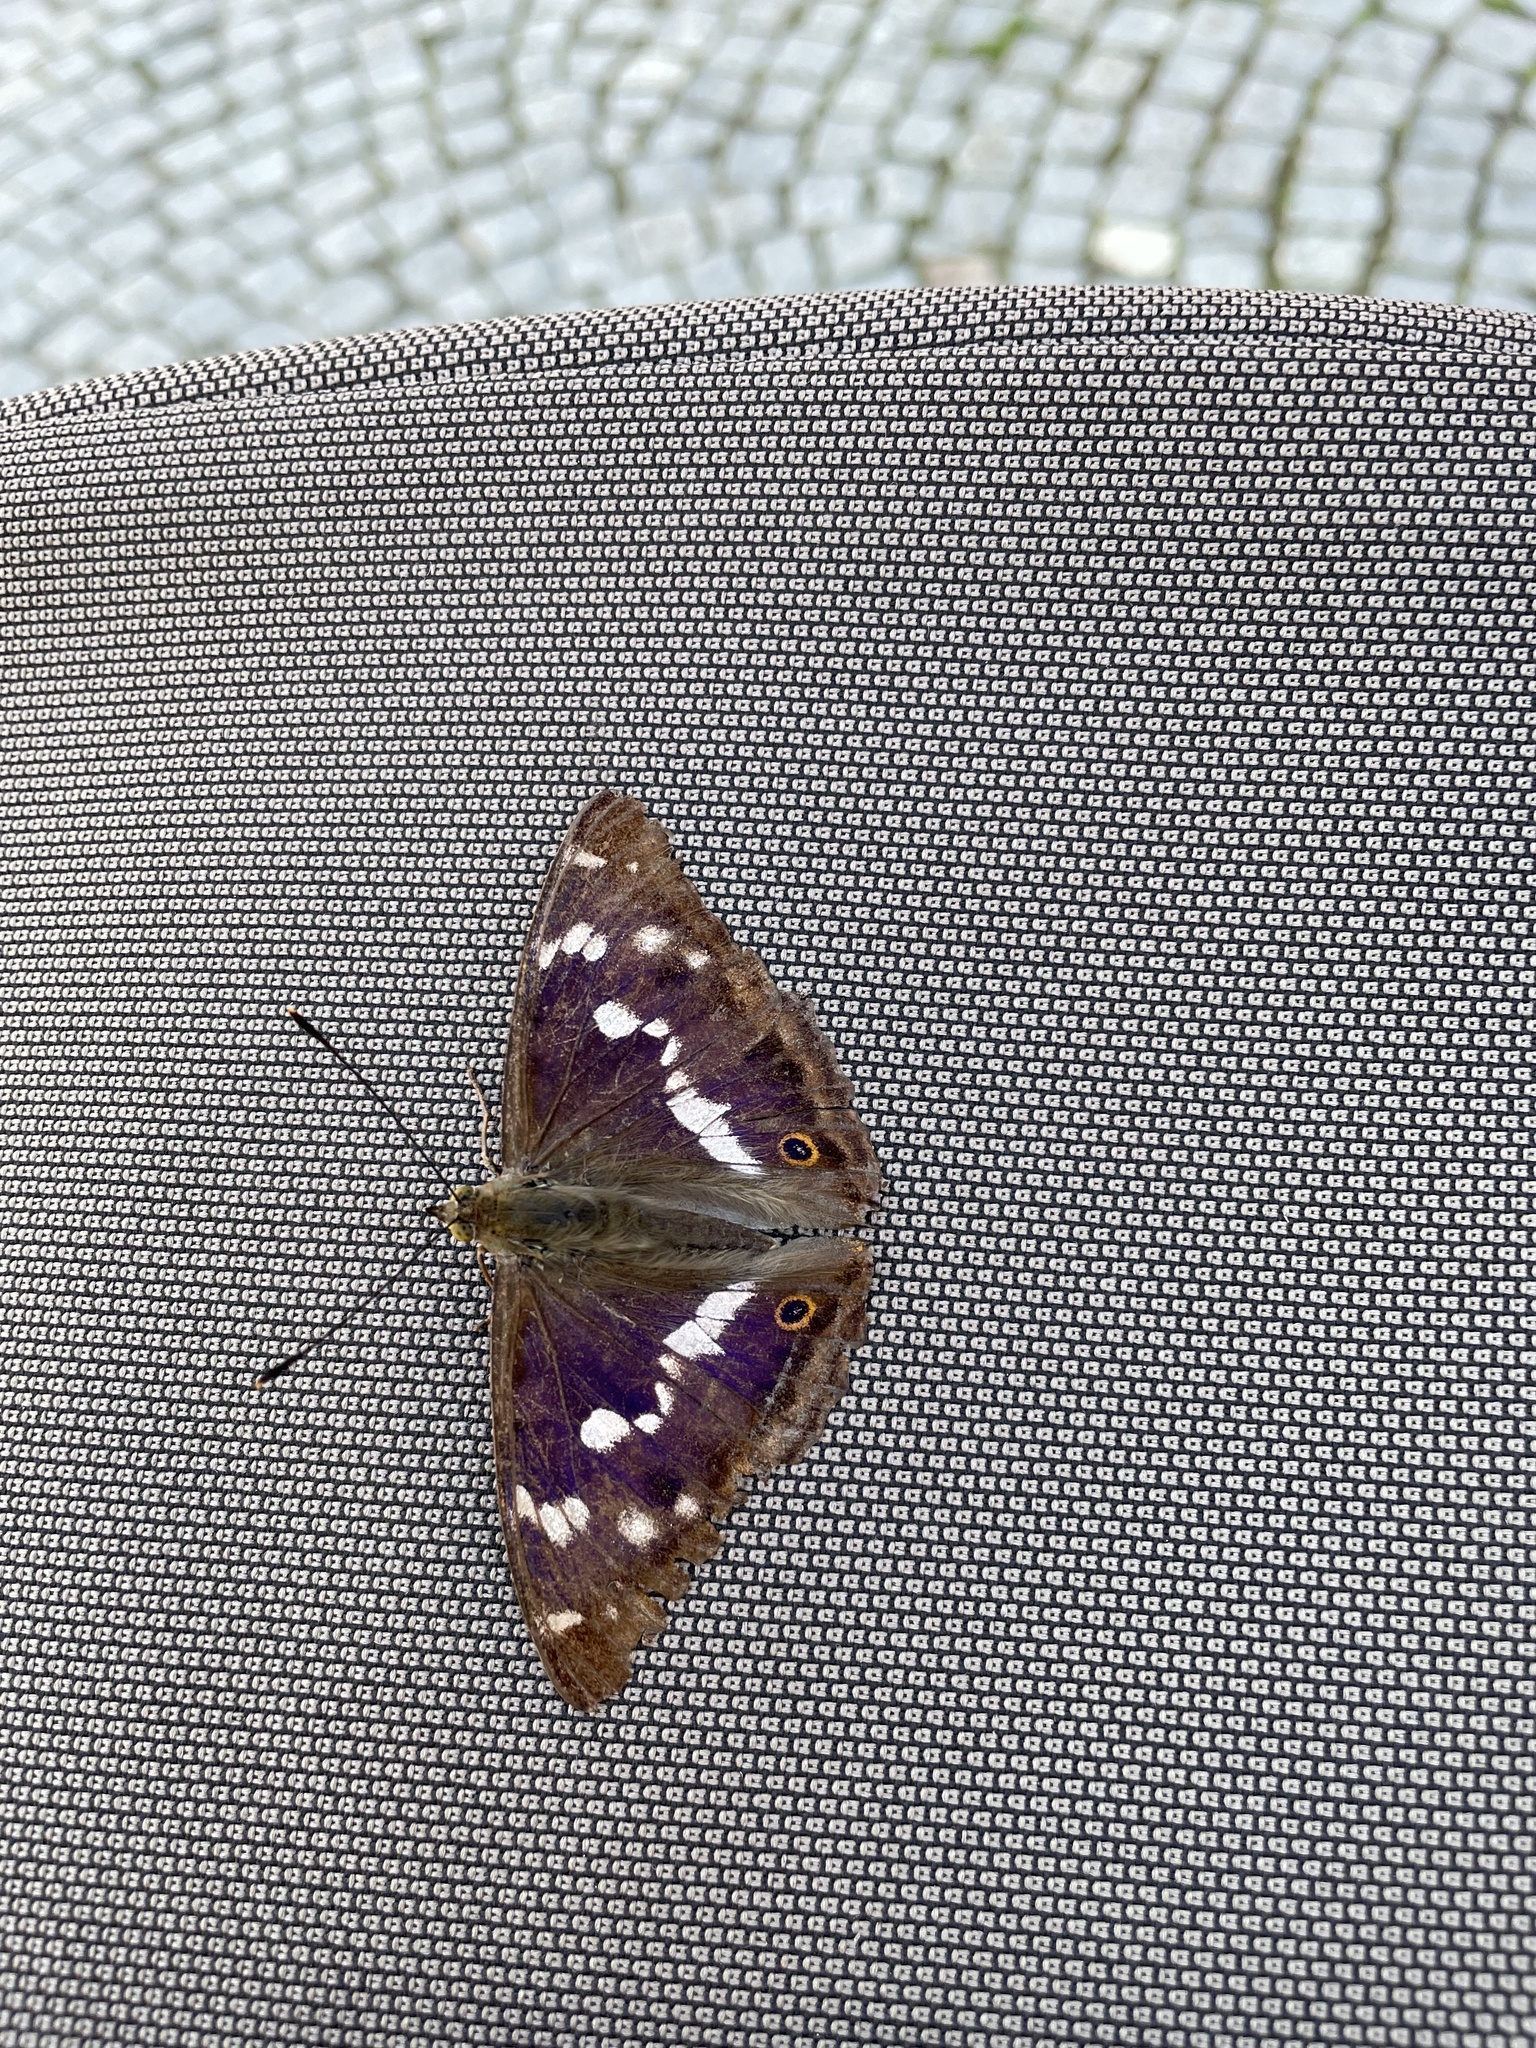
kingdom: Animalia
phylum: Arthropoda
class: Insecta
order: Lepidoptera
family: Nymphalidae
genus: Apatura
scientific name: Apatura iris
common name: Purple emperor
